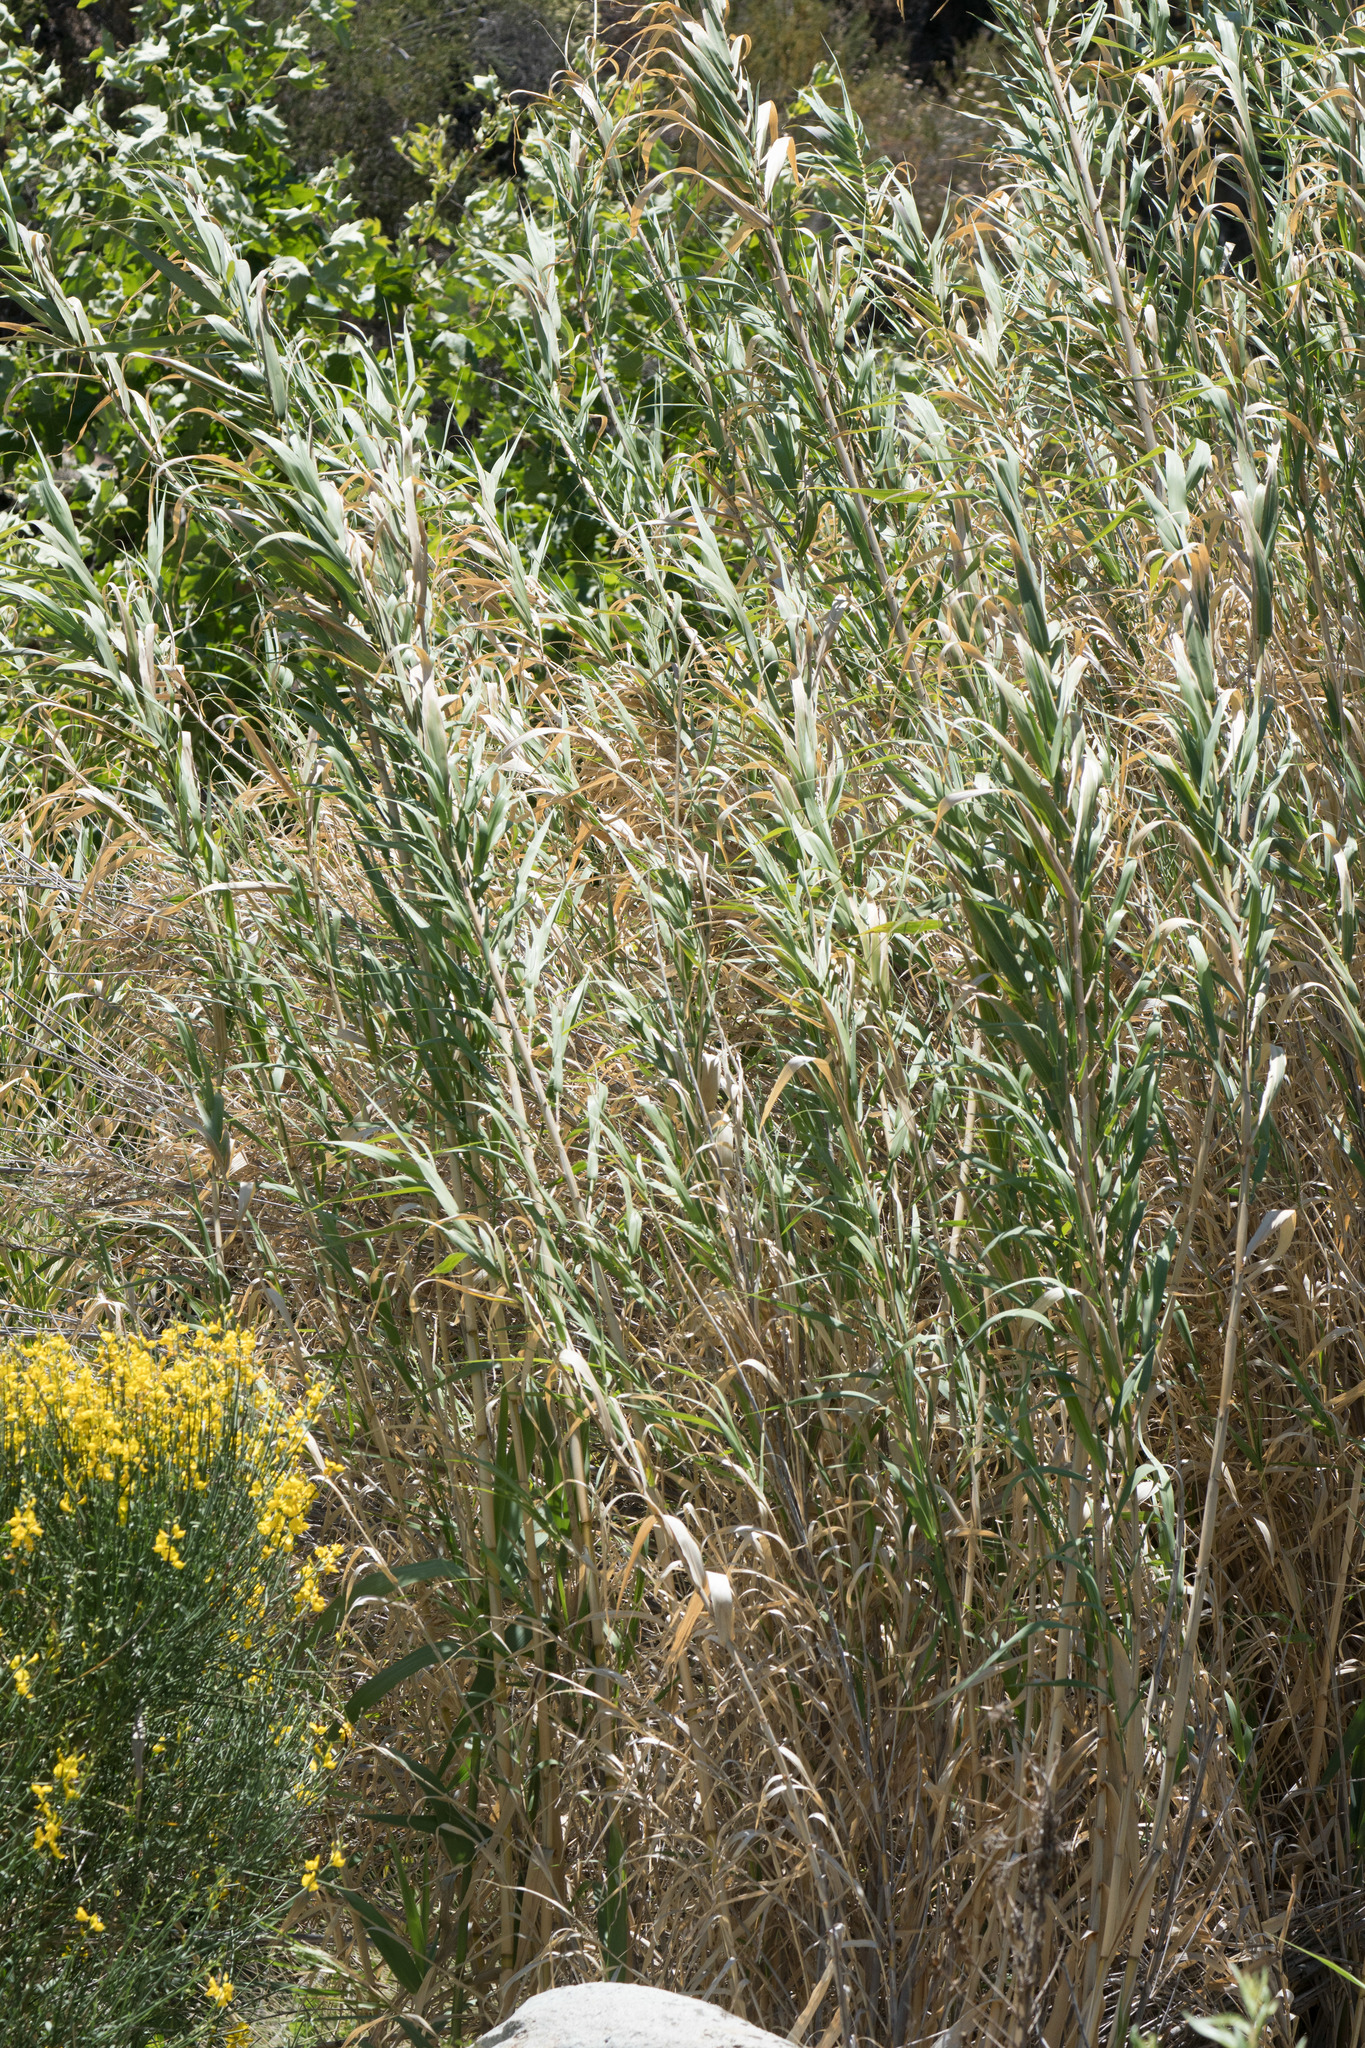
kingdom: Plantae
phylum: Tracheophyta
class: Liliopsida
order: Poales
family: Poaceae
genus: Arundo
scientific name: Arundo donax
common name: Giant reed
